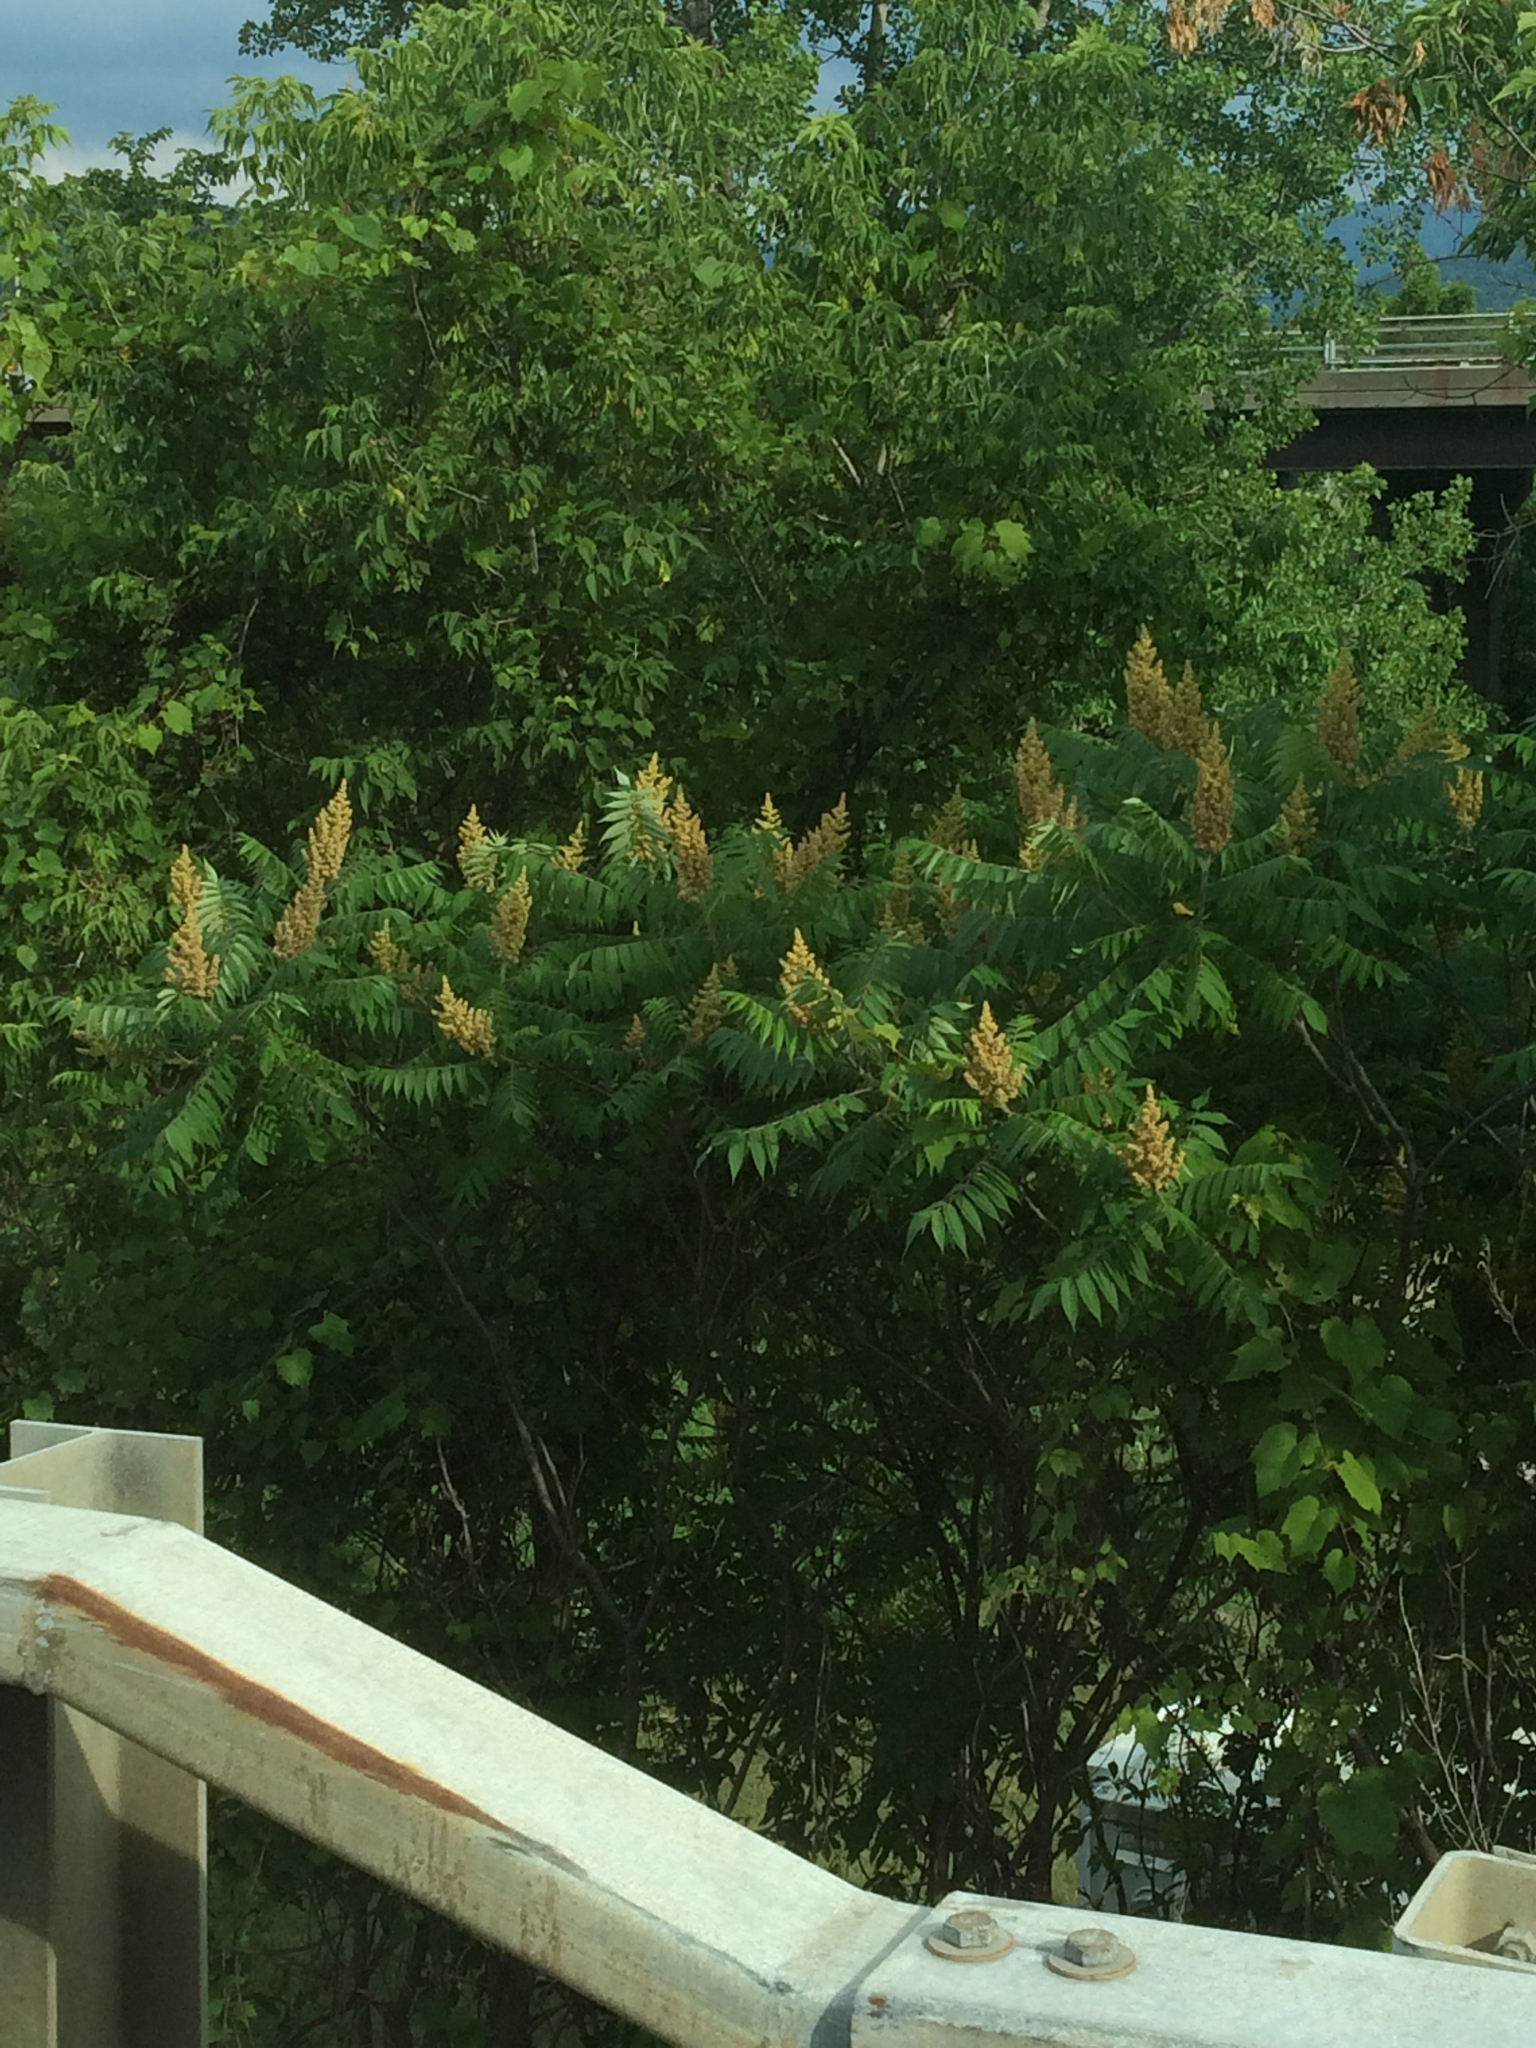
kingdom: Plantae
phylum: Tracheophyta
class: Magnoliopsida
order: Sapindales
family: Anacardiaceae
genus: Rhus
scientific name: Rhus typhina
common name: Staghorn sumac
